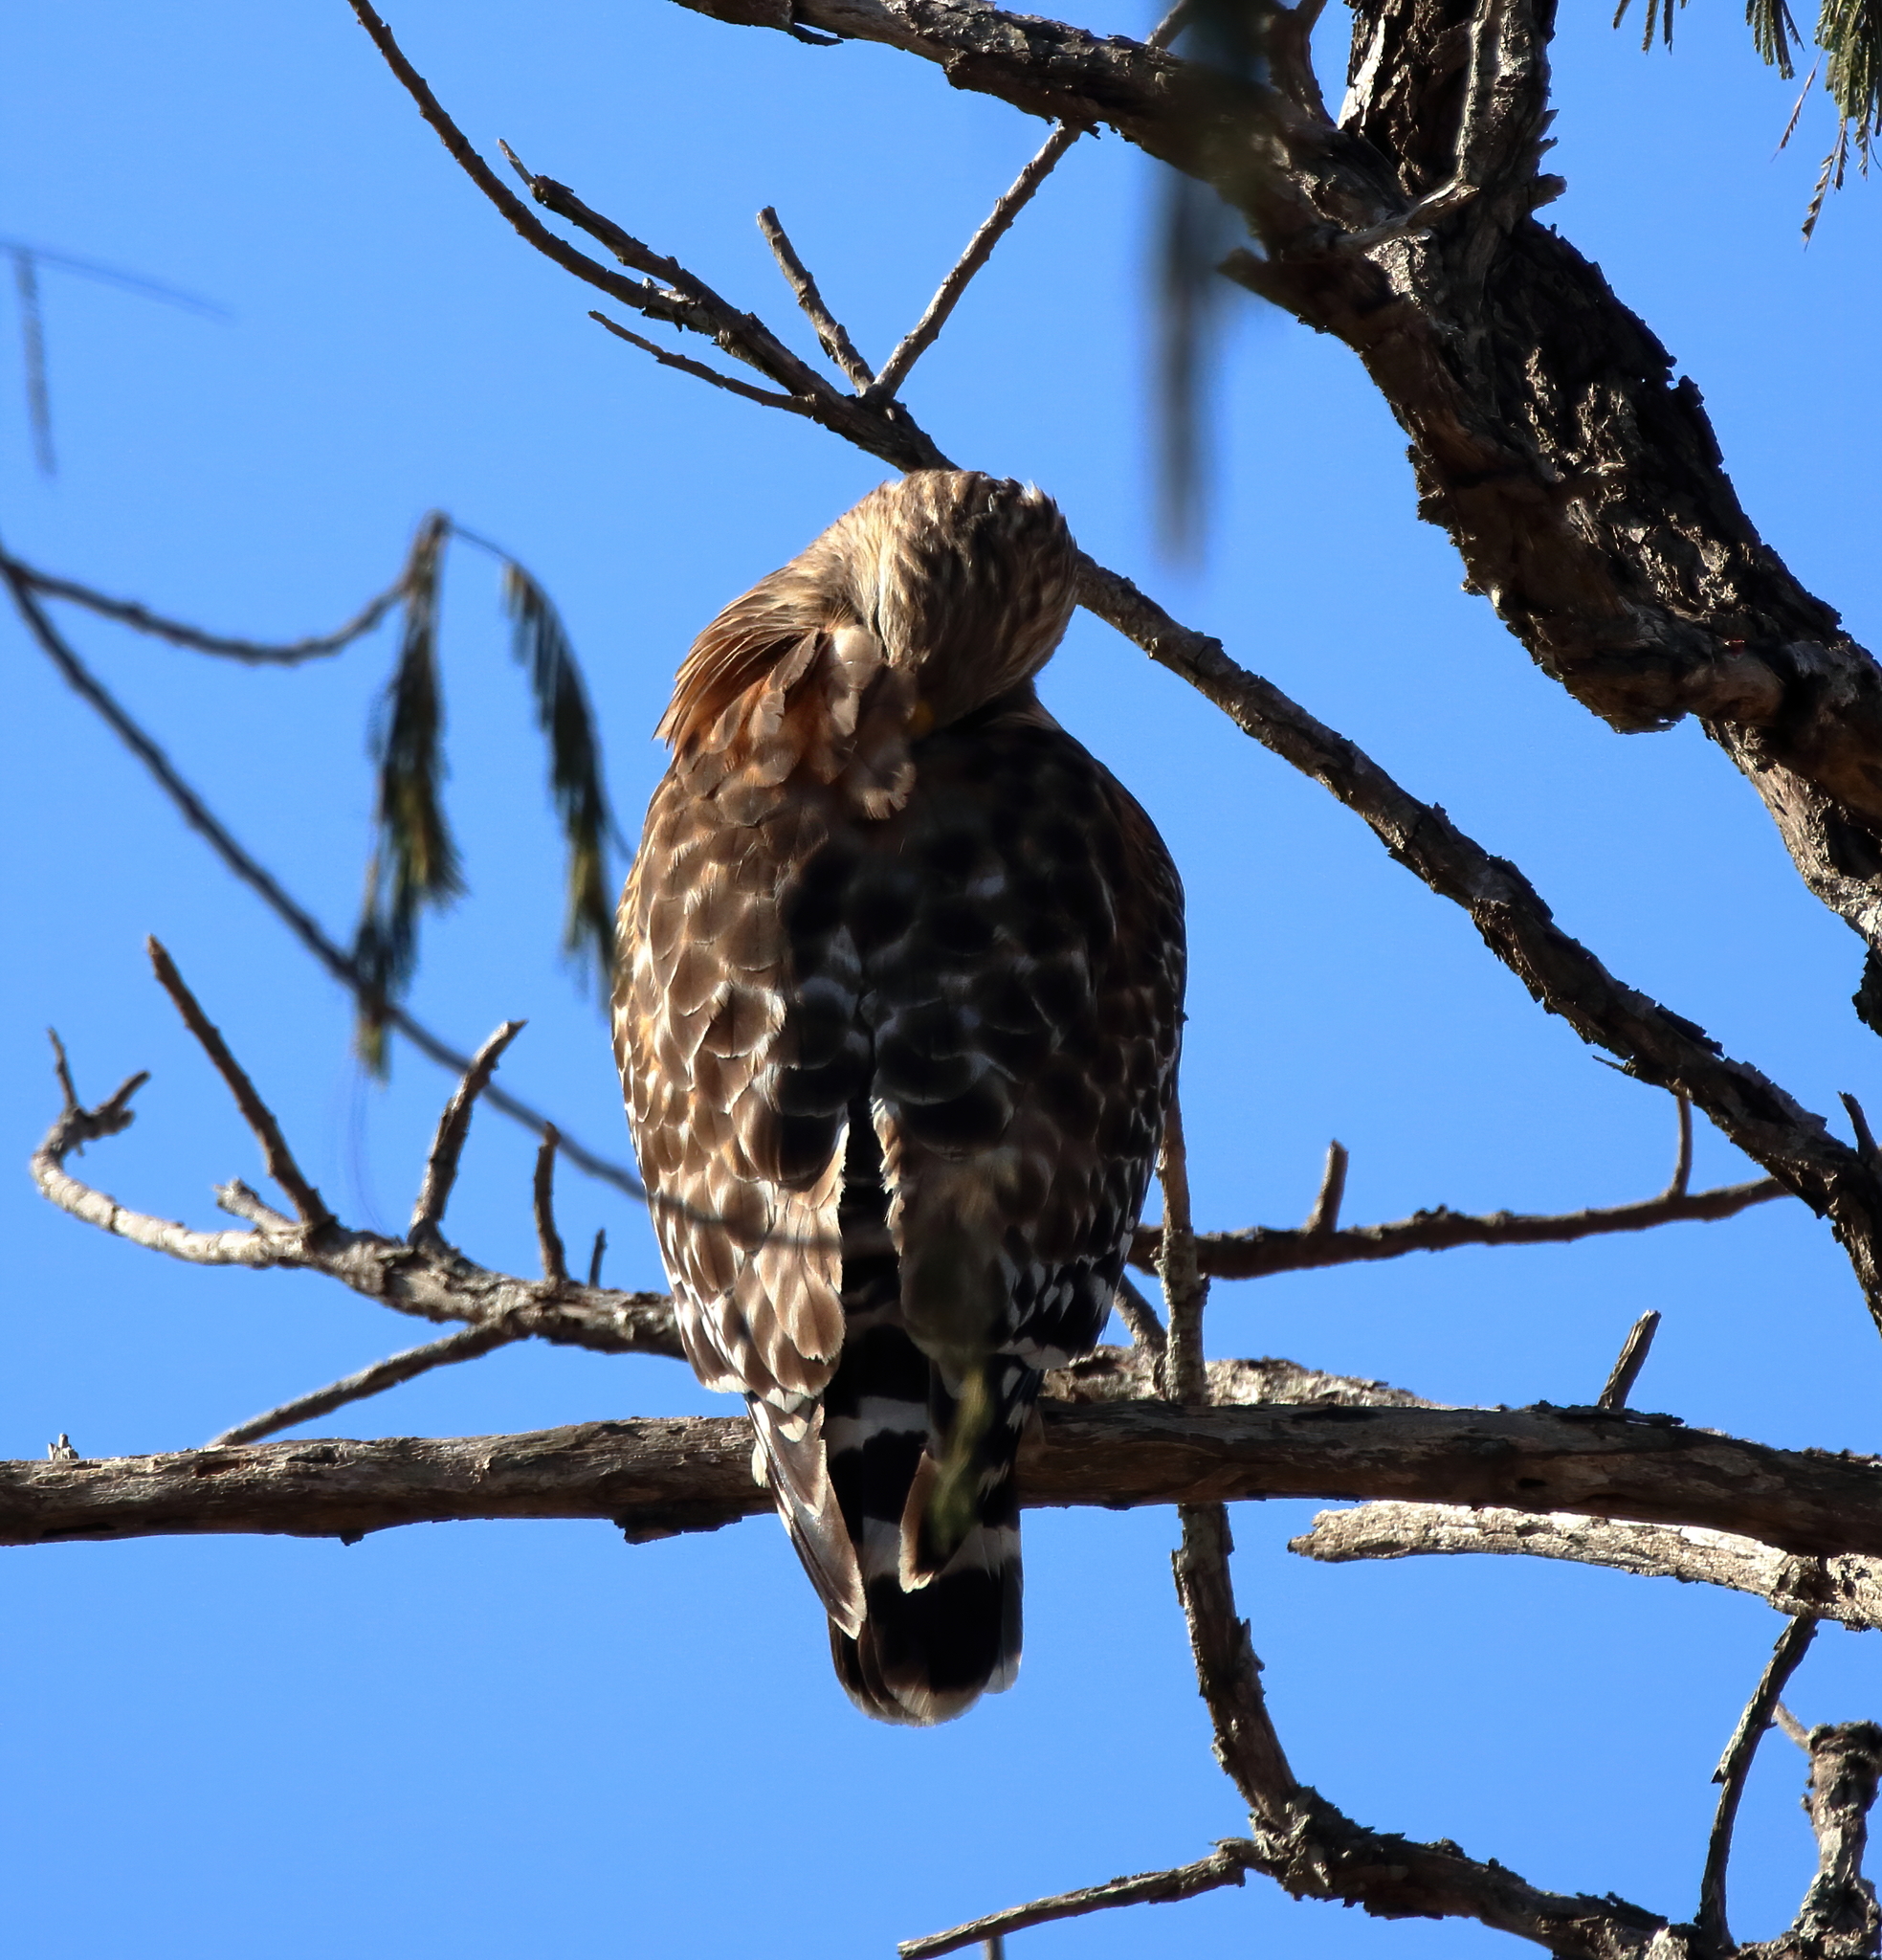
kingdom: Animalia
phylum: Chordata
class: Aves
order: Accipitriformes
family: Accipitridae
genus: Buteo
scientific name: Buteo lineatus
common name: Red-shouldered hawk
